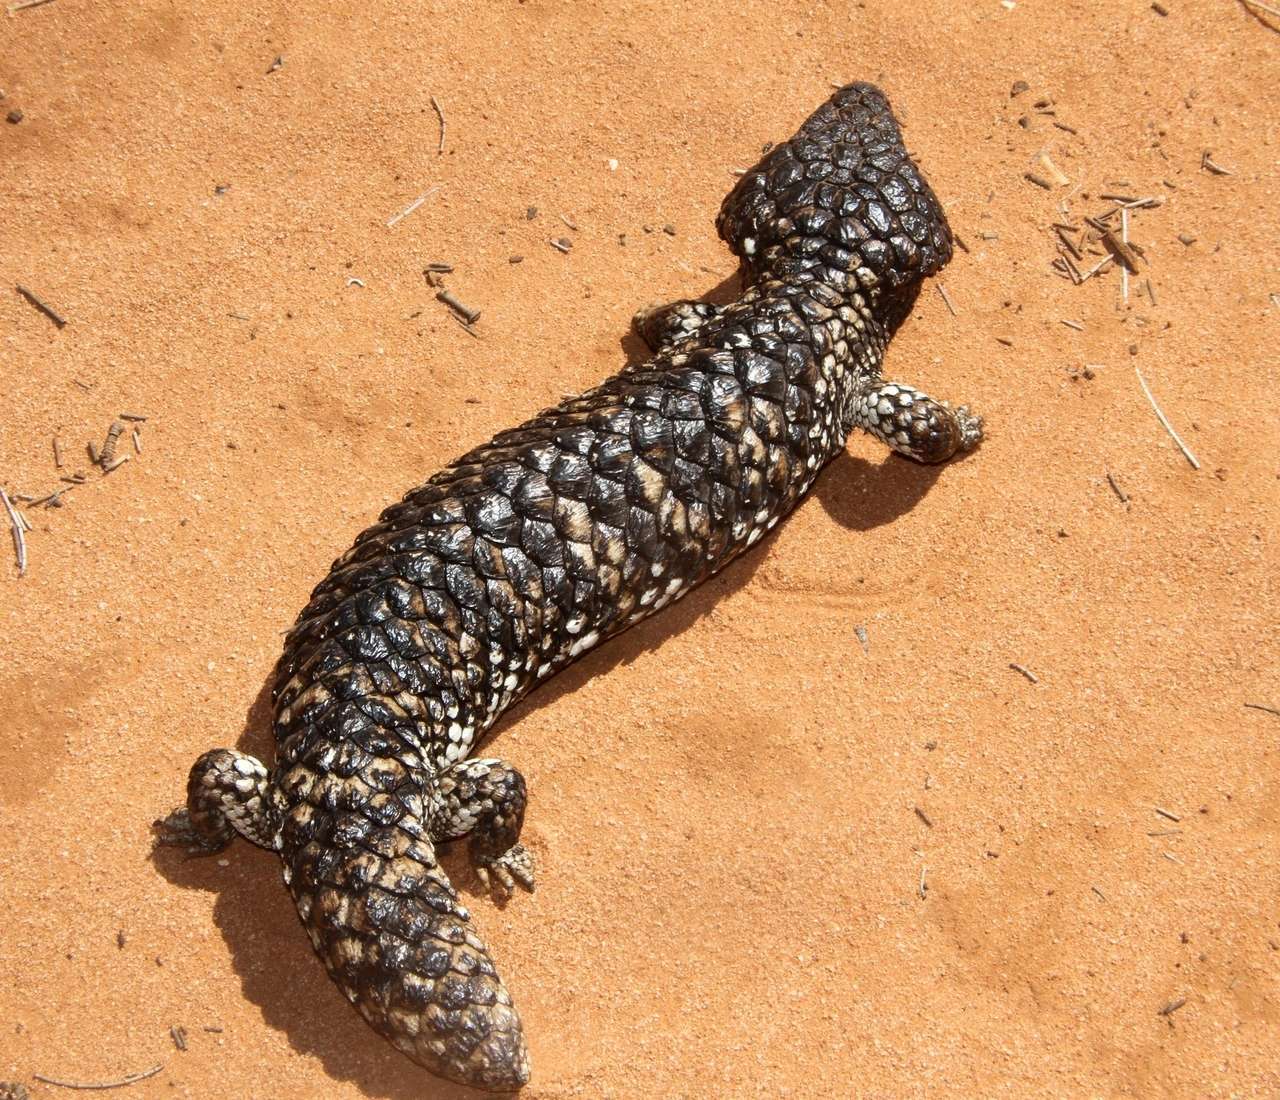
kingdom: Animalia
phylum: Chordata
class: Squamata
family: Scincidae
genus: Tiliqua
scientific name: Tiliqua rugosa
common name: Pinecone lizard
